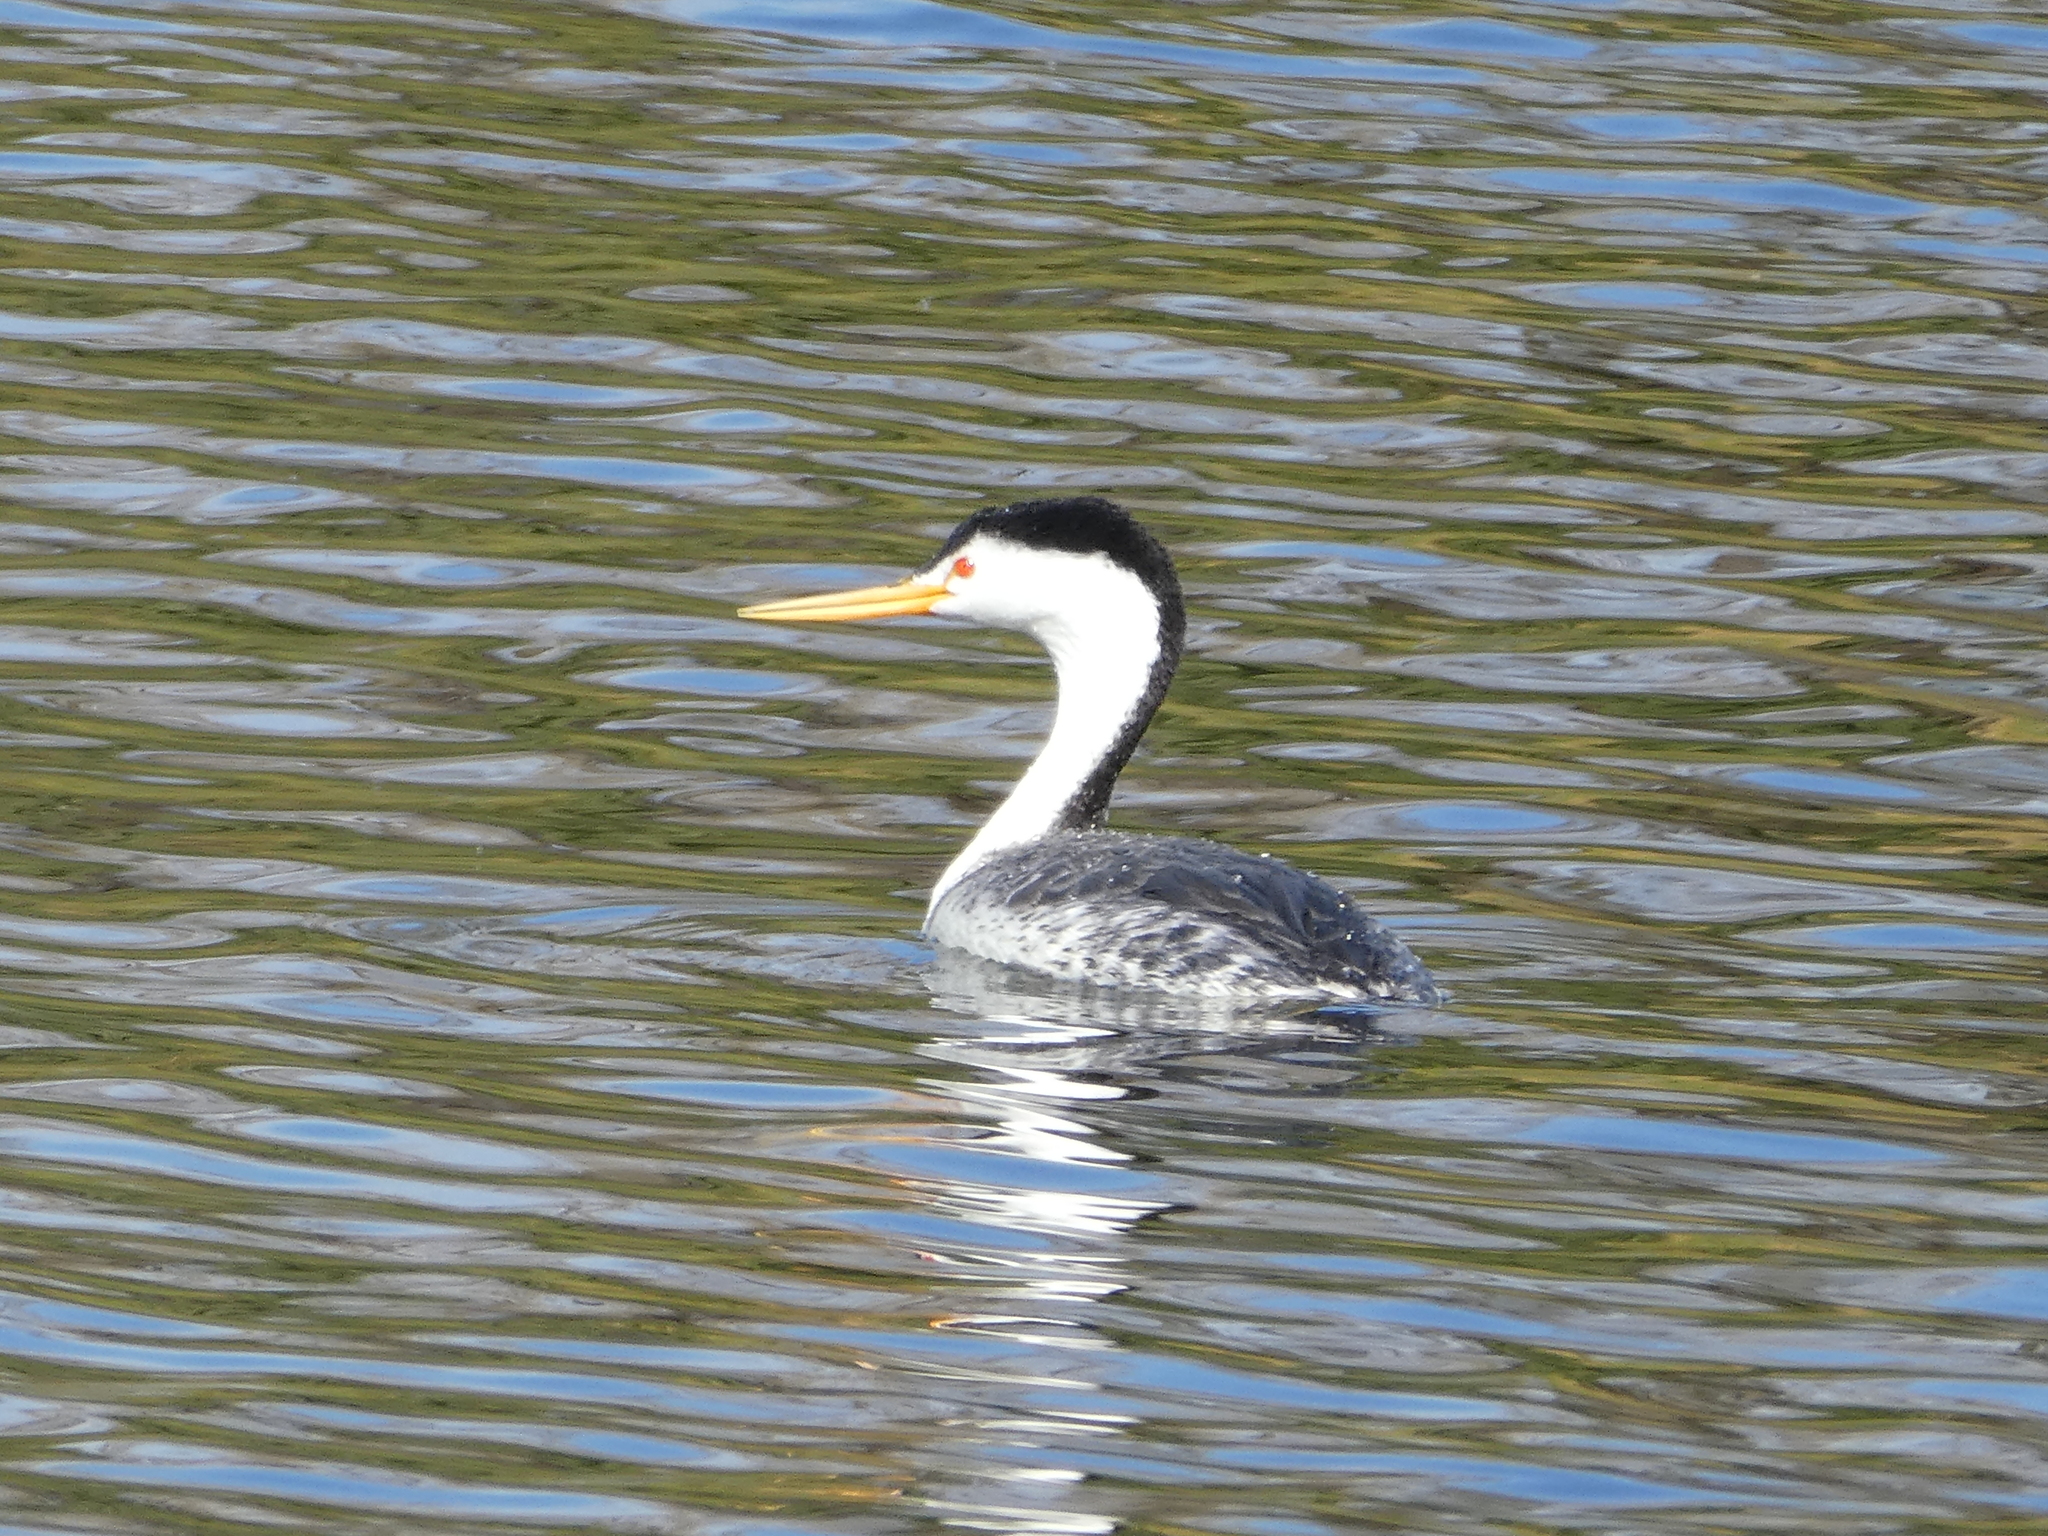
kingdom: Animalia
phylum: Chordata
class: Aves
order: Podicipediformes
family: Podicipedidae
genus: Aechmophorus
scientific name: Aechmophorus clarkii
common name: Clark's grebe
